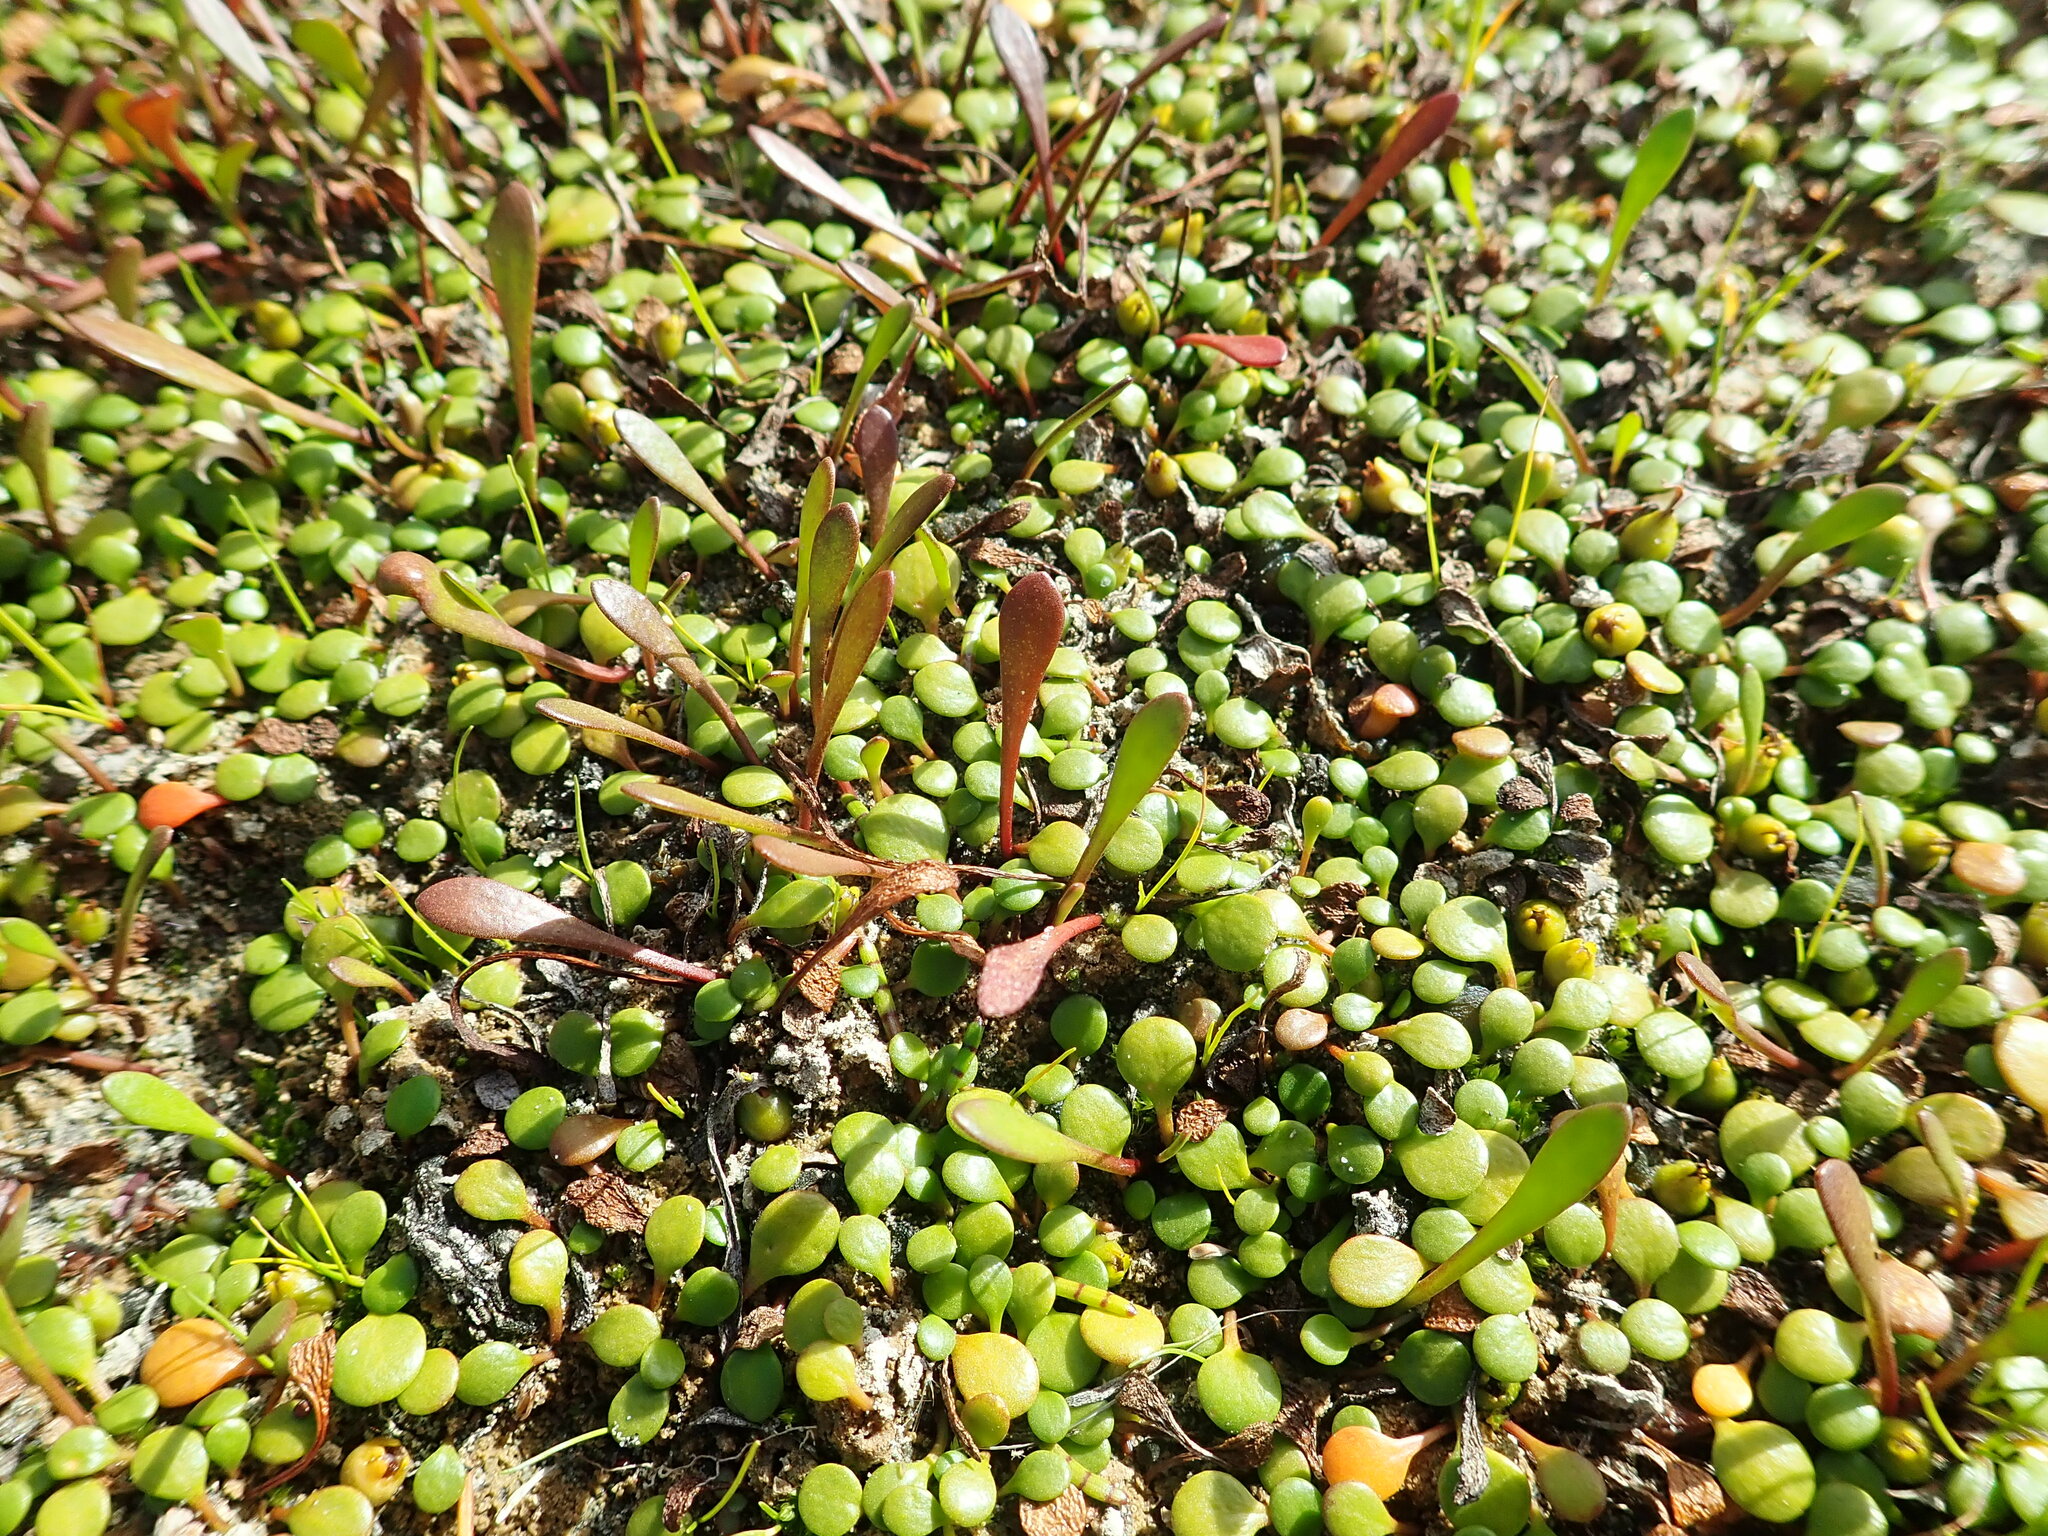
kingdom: Plantae
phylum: Tracheophyta
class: Magnoliopsida
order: Asterales
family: Goodeniaceae
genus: Goodenia
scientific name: Goodenia radicans
